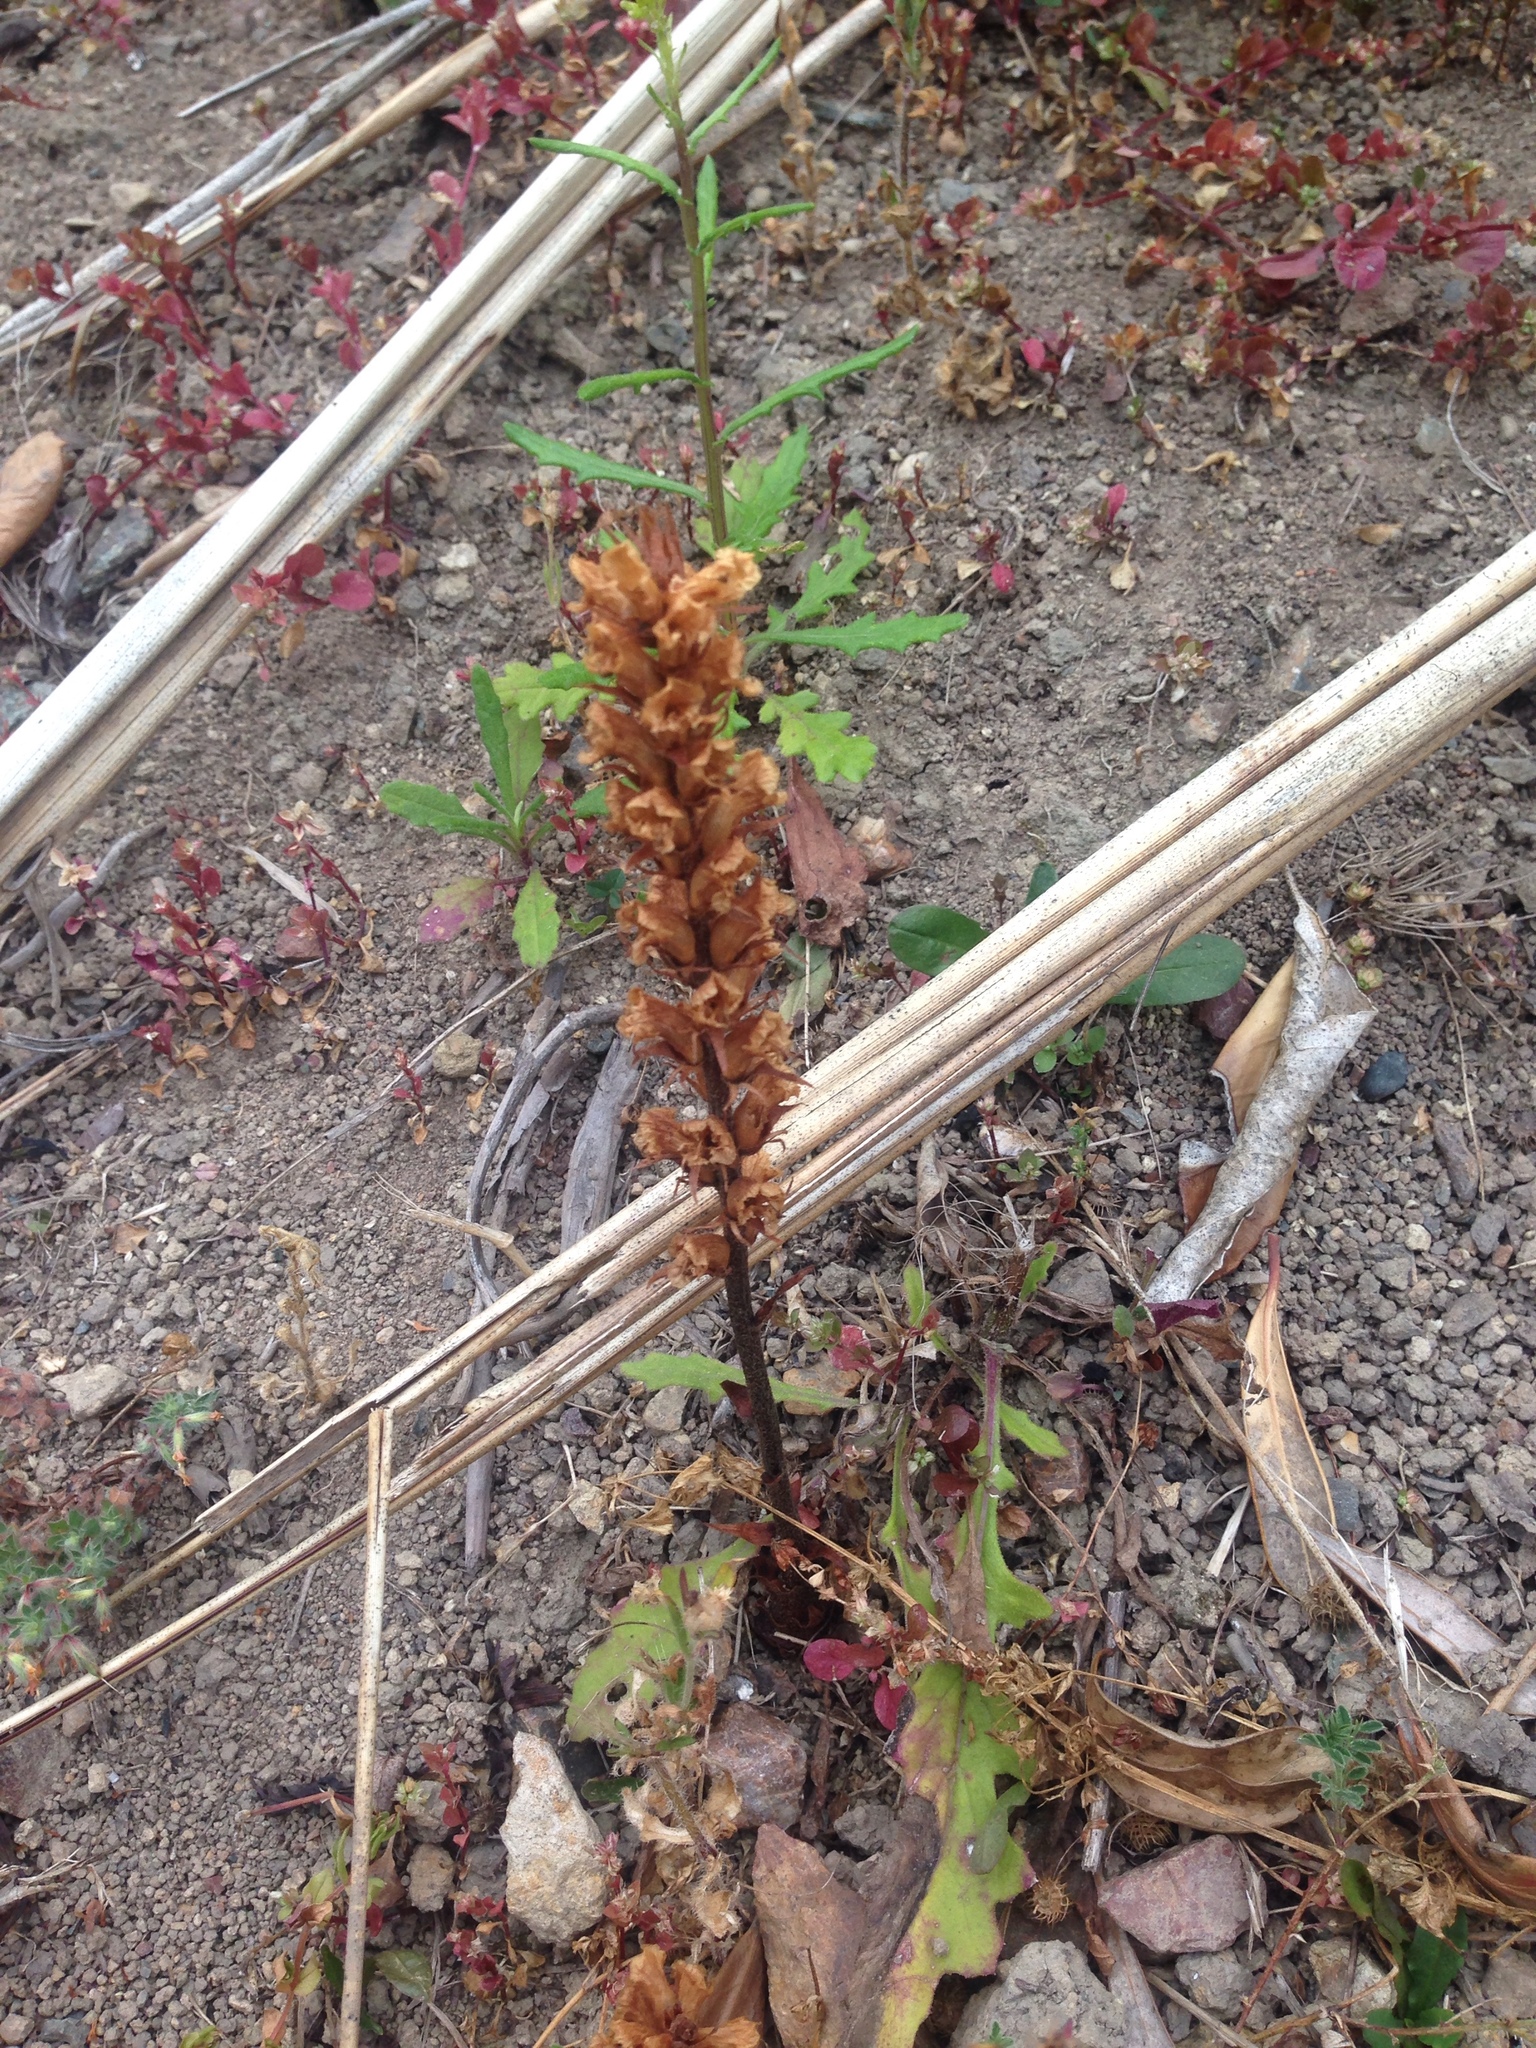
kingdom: Plantae
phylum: Tracheophyta
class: Magnoliopsida
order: Lamiales
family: Orobanchaceae
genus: Orobanche
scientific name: Orobanche minor
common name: Common broomrape
